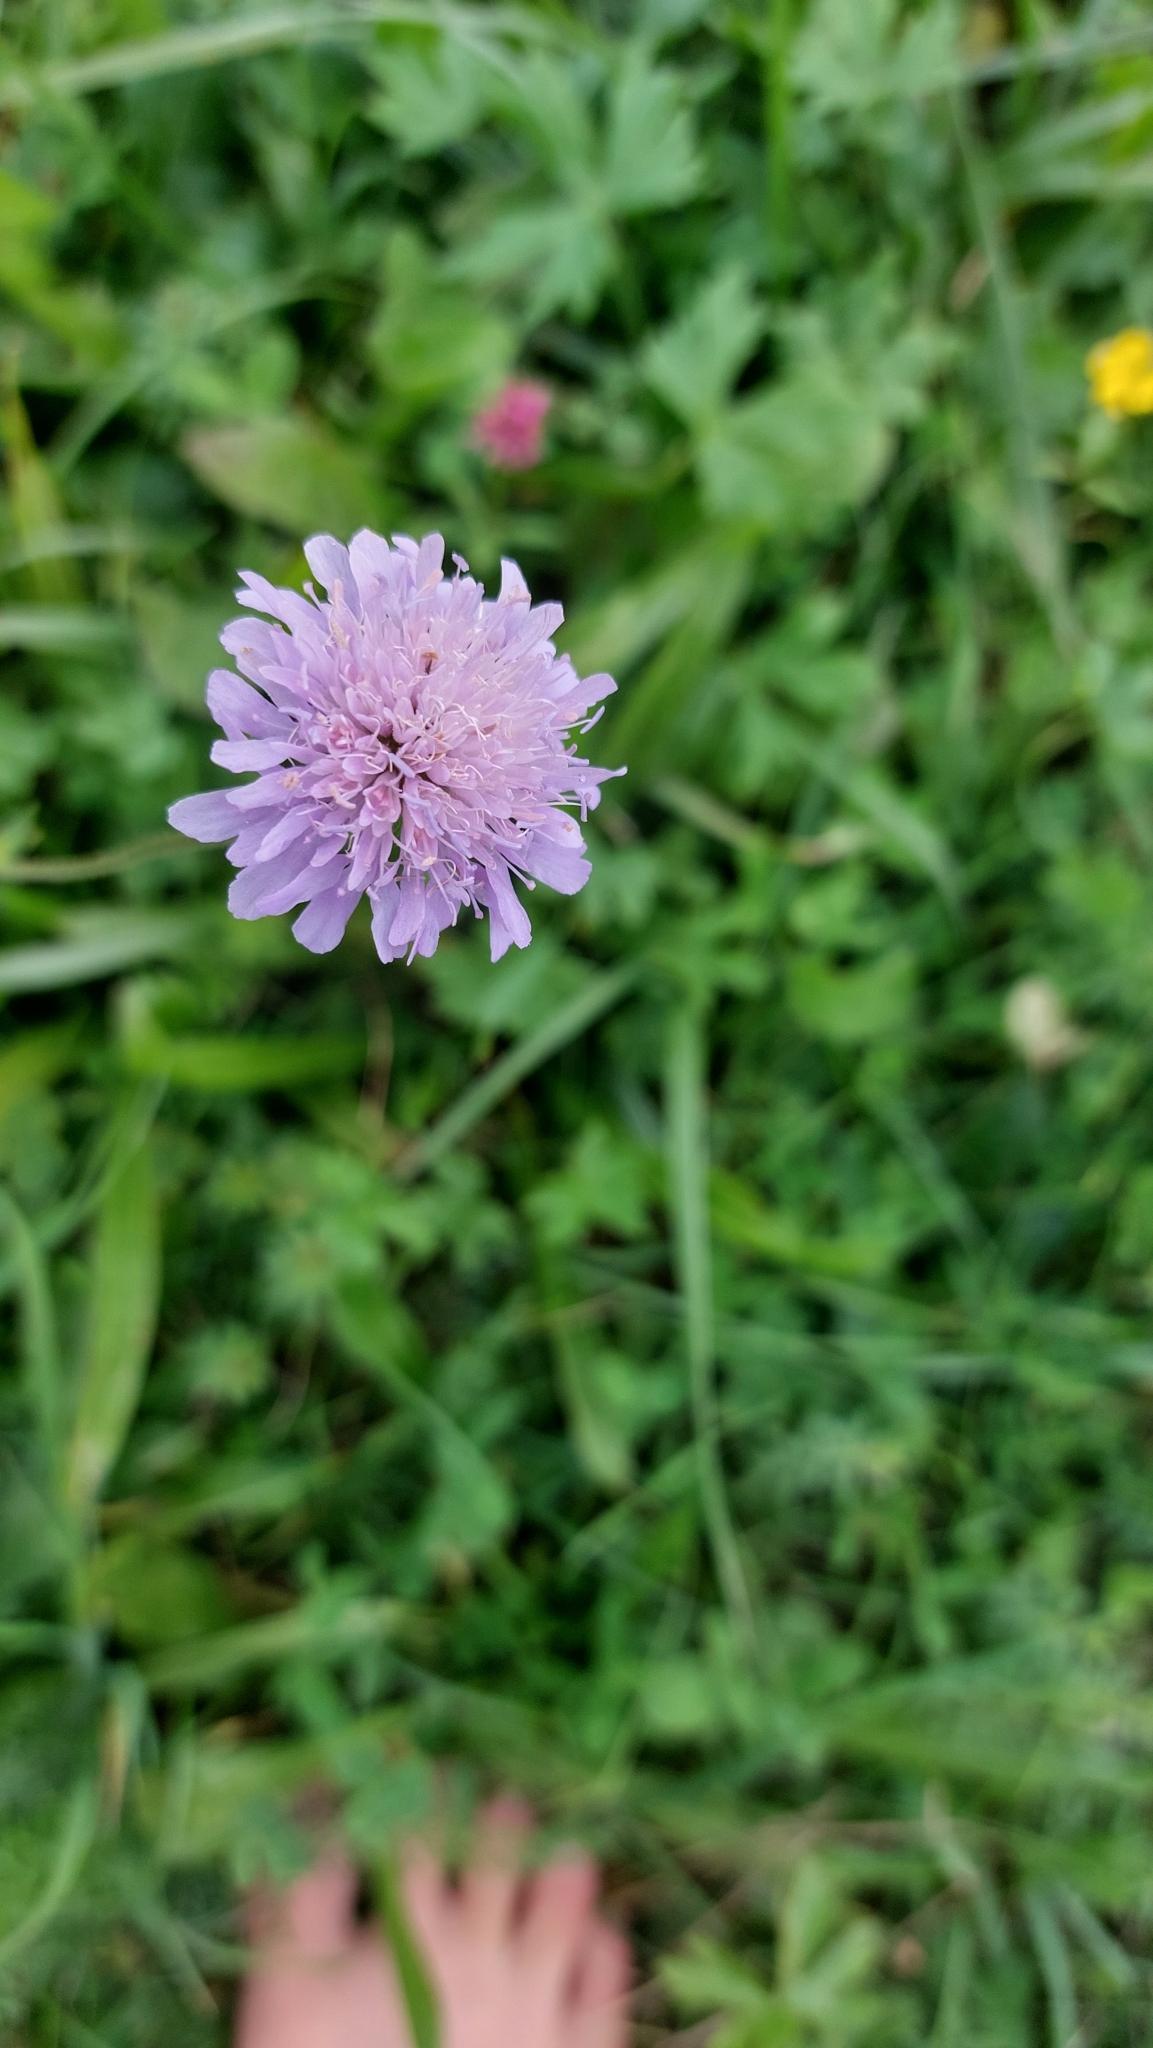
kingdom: Plantae
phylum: Tracheophyta
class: Magnoliopsida
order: Dipsacales
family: Caprifoliaceae
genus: Knautia
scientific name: Knautia arvensis
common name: Field scabiosa
